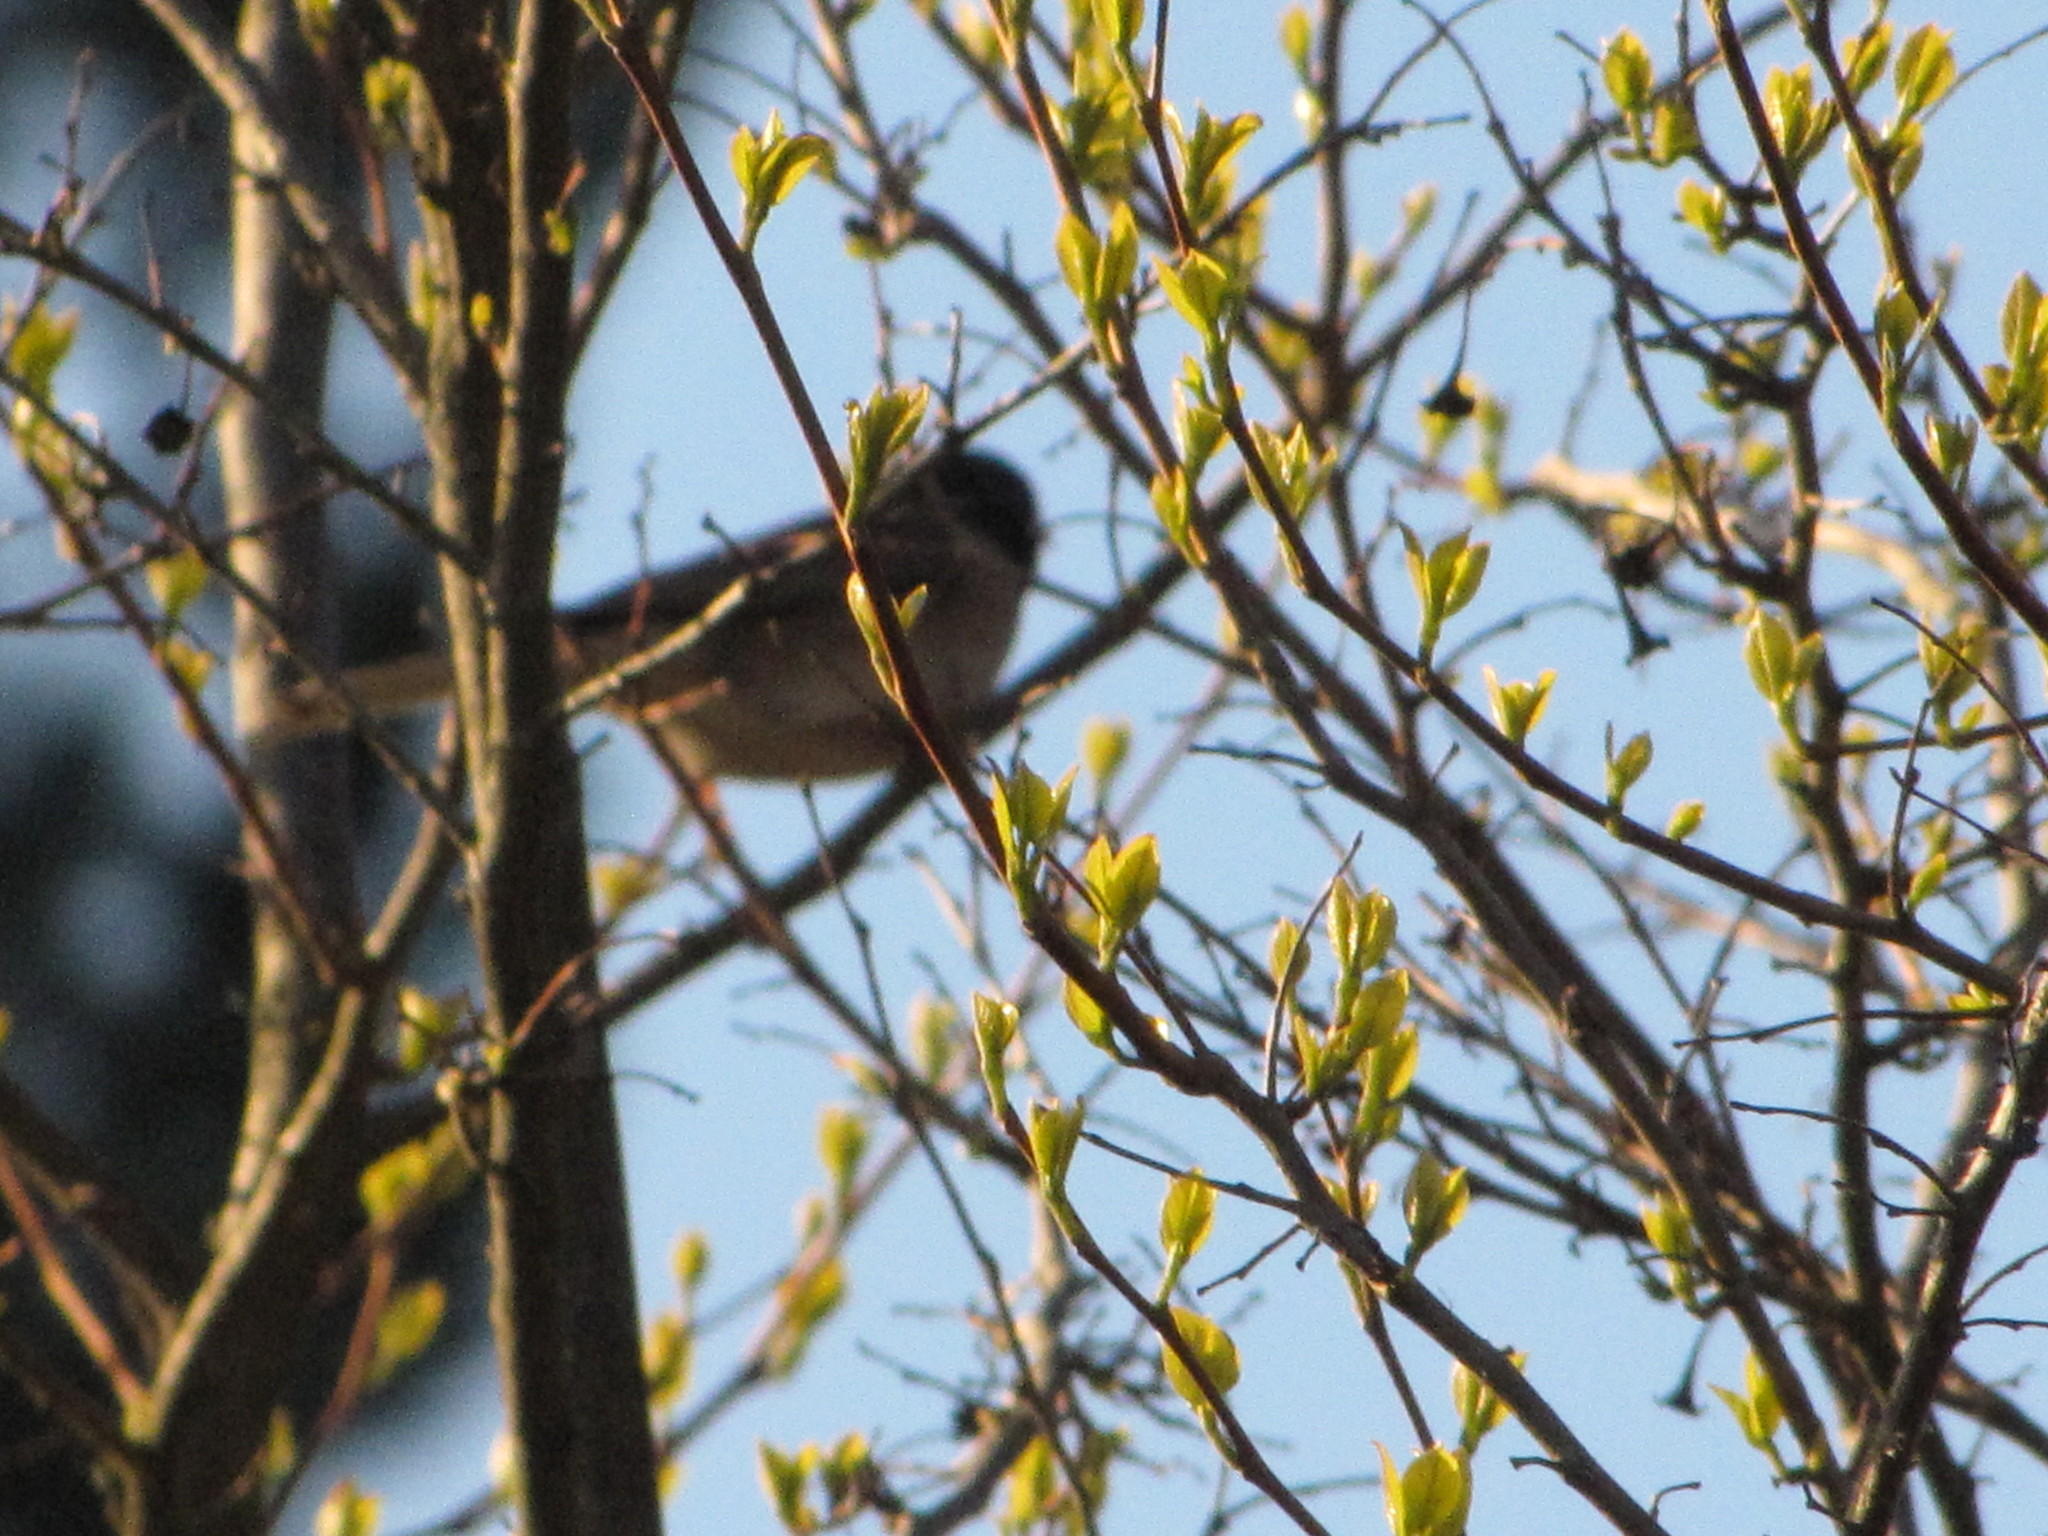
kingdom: Animalia
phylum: Chordata
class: Aves
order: Passeriformes
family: Passerellidae
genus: Junco
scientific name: Junco hyemalis
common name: Dark-eyed junco
